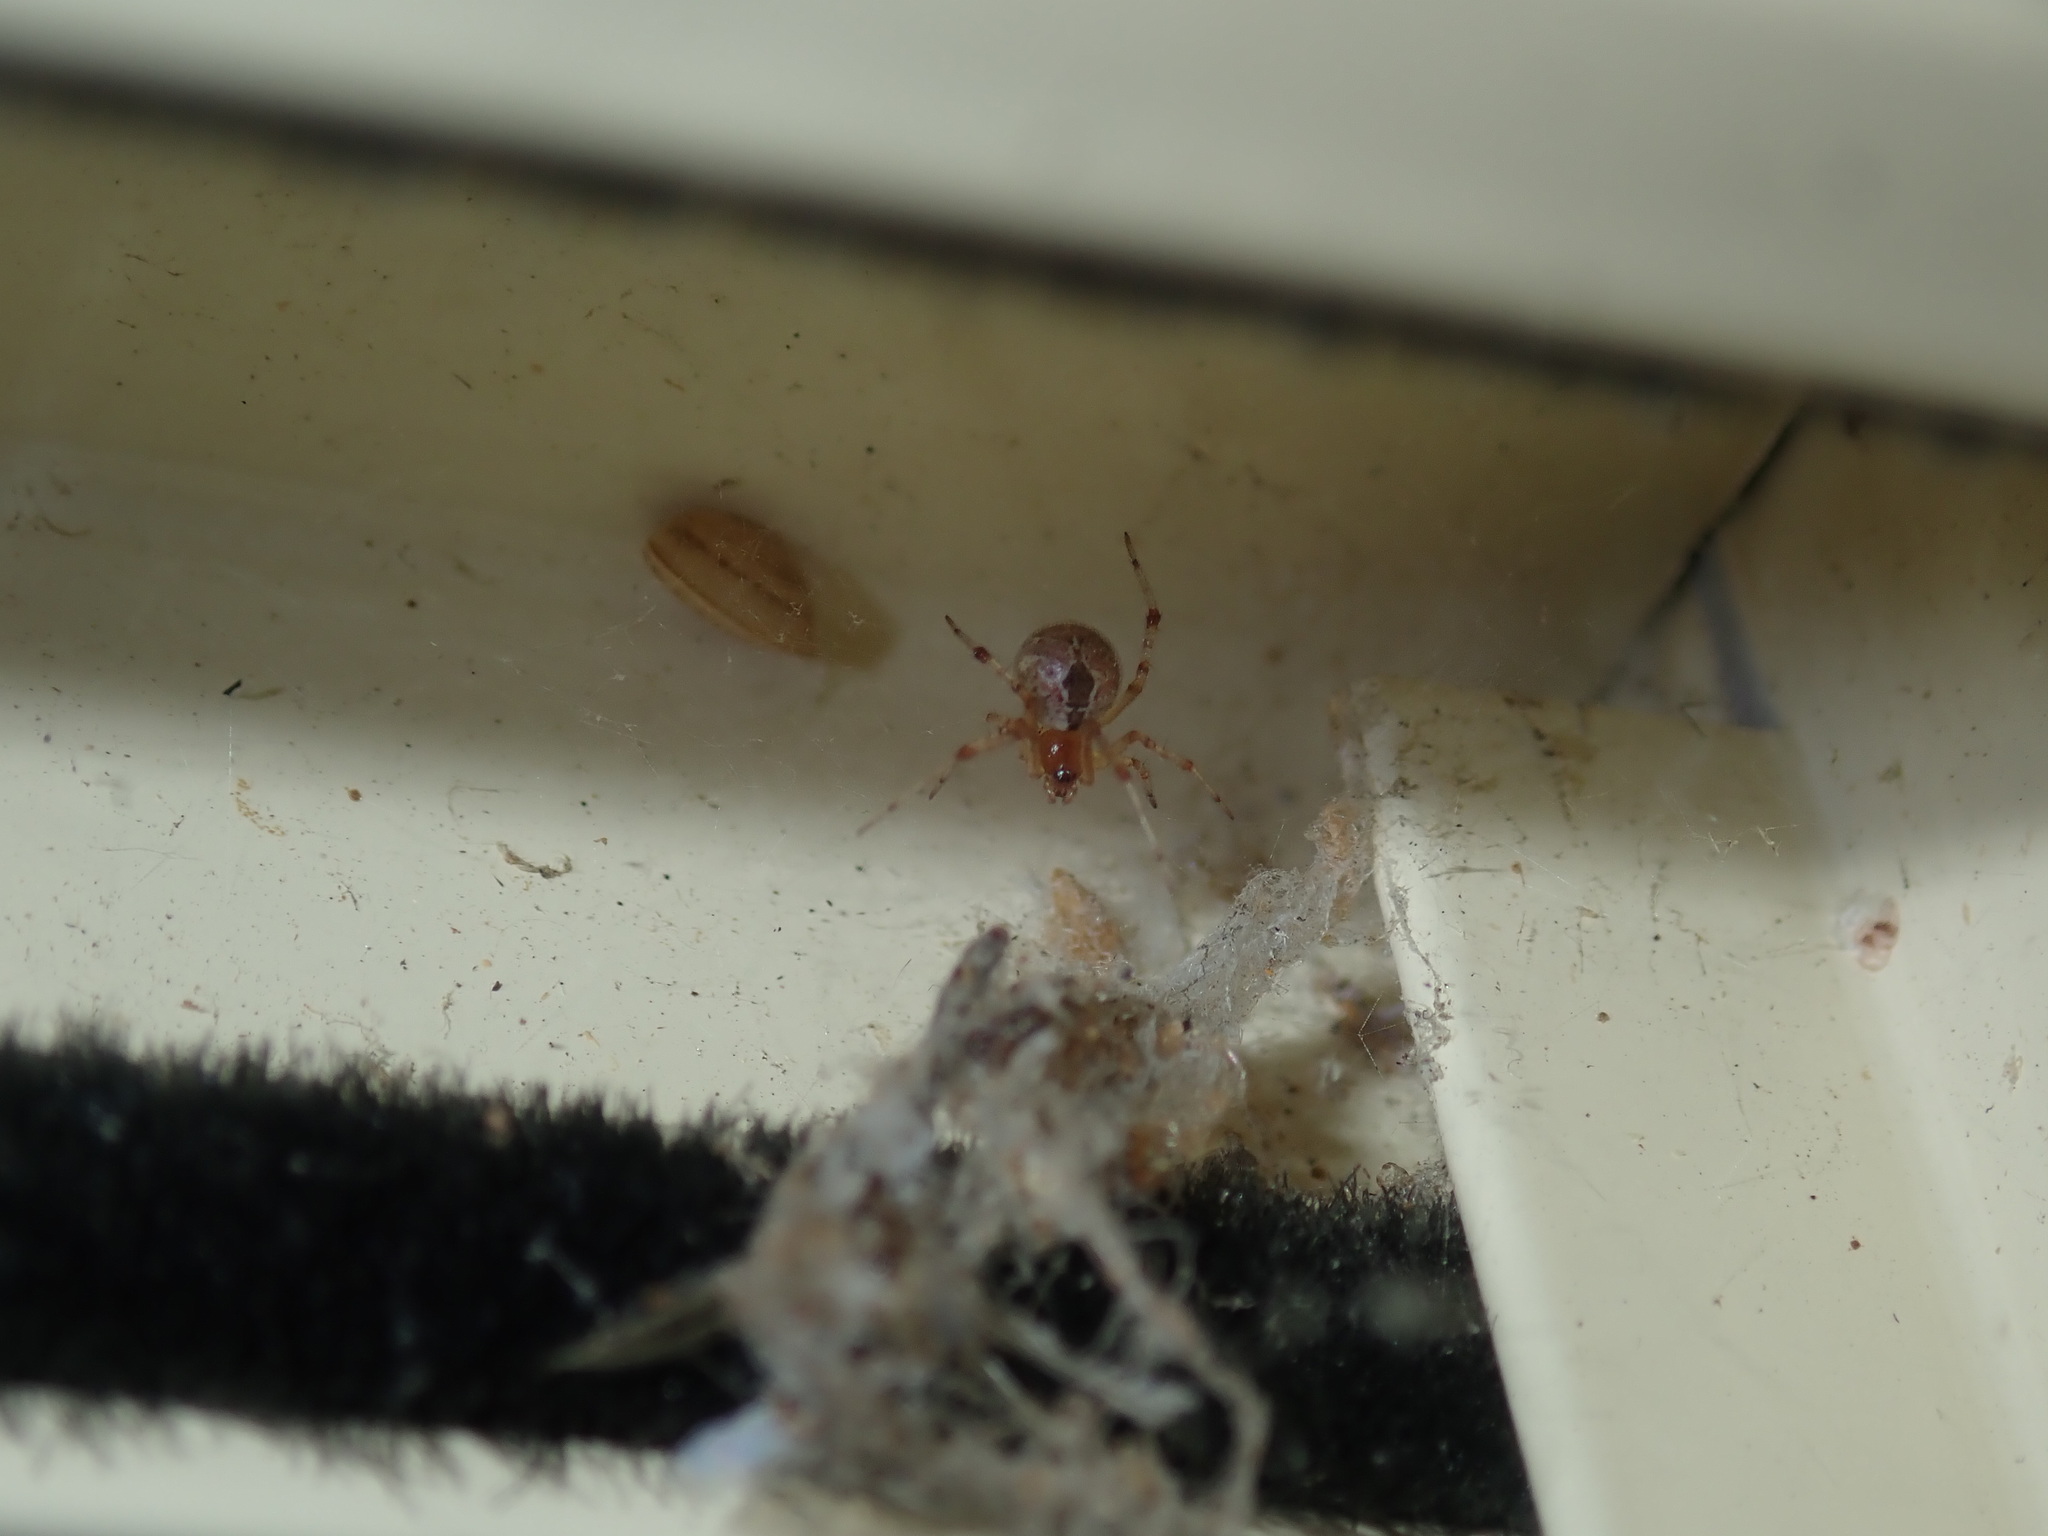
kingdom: Animalia
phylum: Arthropoda
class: Arachnida
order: Araneae
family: Theridiidae
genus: Cryptachaea
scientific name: Cryptachaea veruculata
